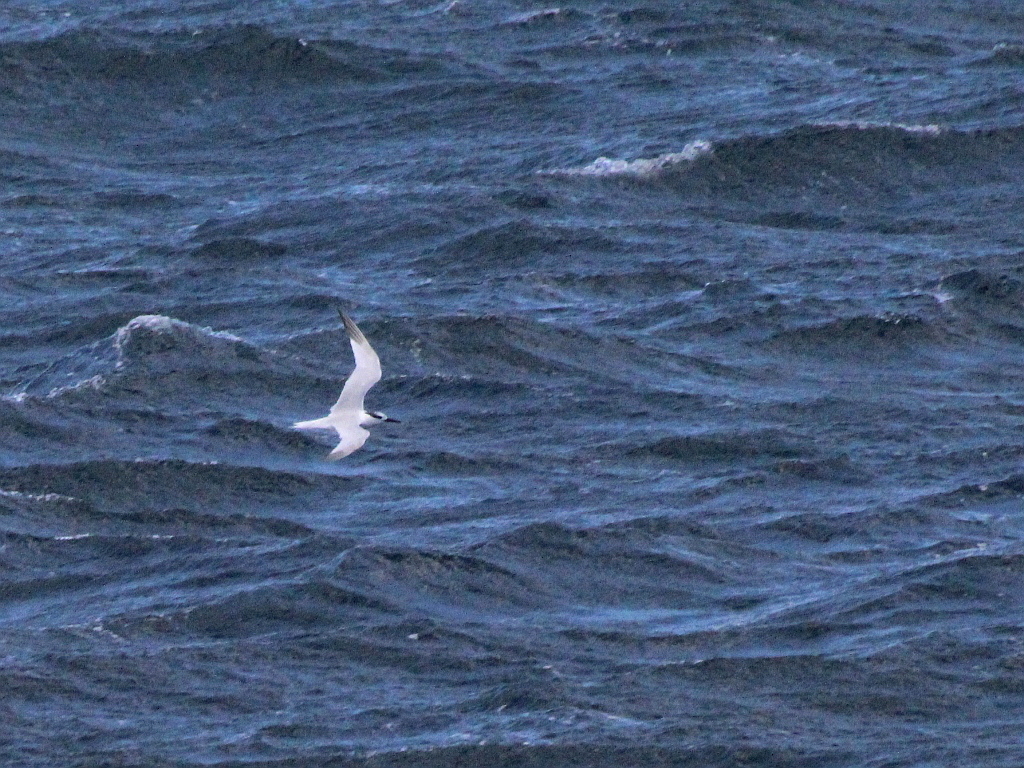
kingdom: Animalia
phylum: Chordata
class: Aves
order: Charadriiformes
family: Laridae
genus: Thalasseus
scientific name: Thalasseus sandvicensis
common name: Sandwich tern
